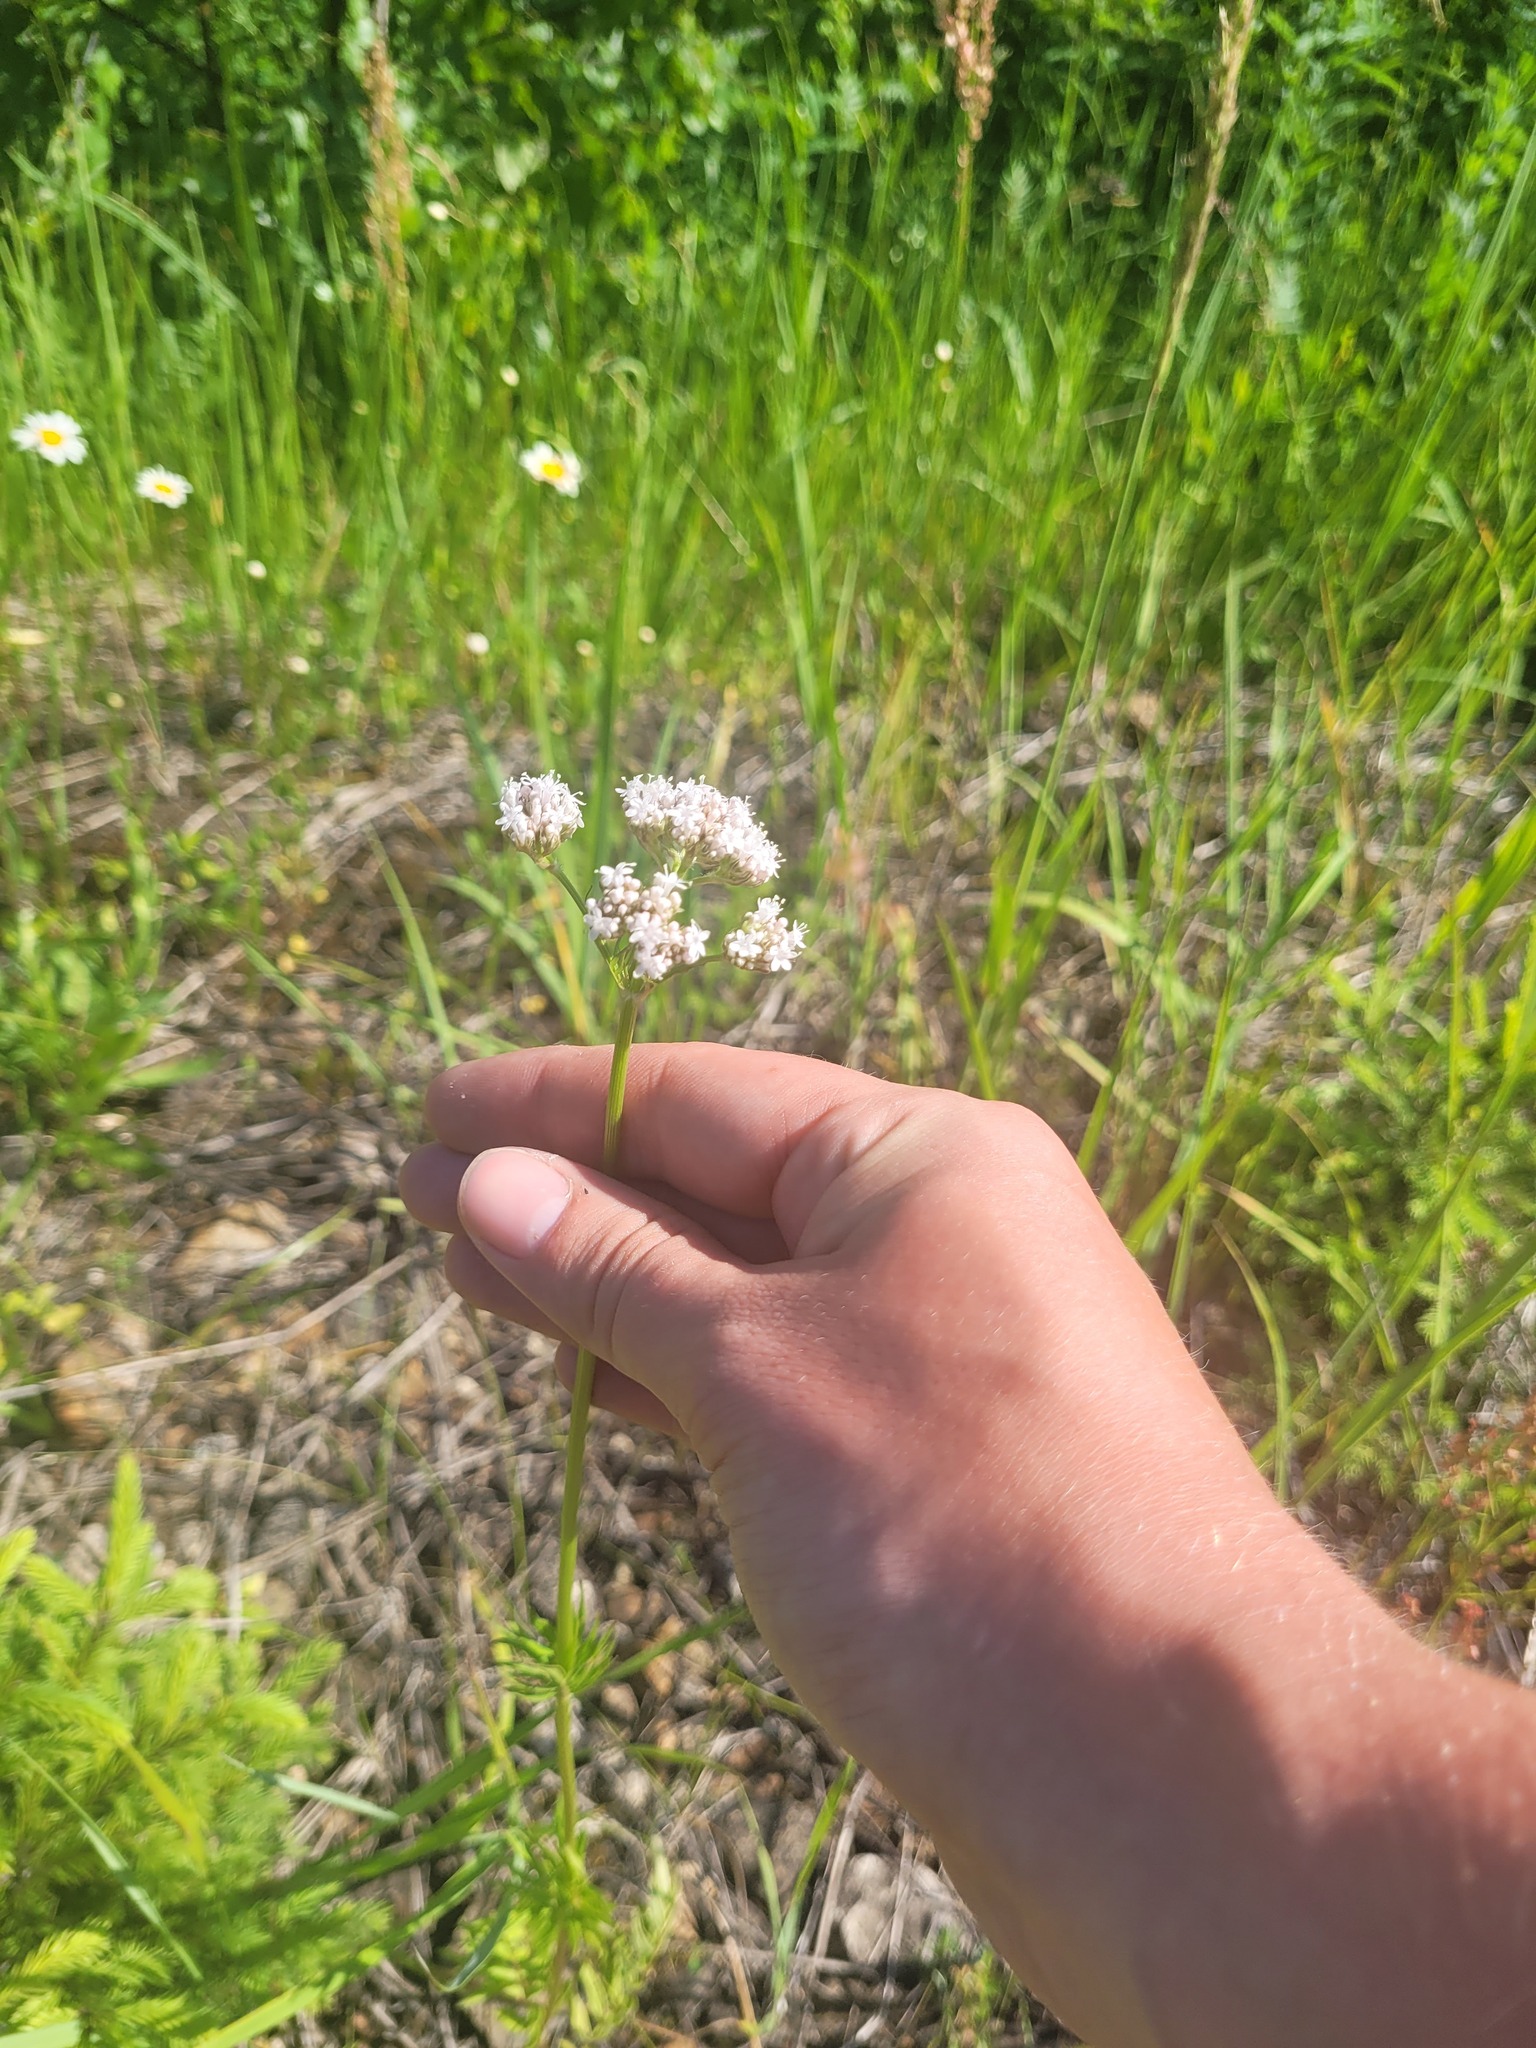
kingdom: Plantae
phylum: Tracheophyta
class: Magnoliopsida
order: Dipsacales
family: Caprifoliaceae
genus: Valeriana
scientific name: Valeriana officinalis
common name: Common valerian
